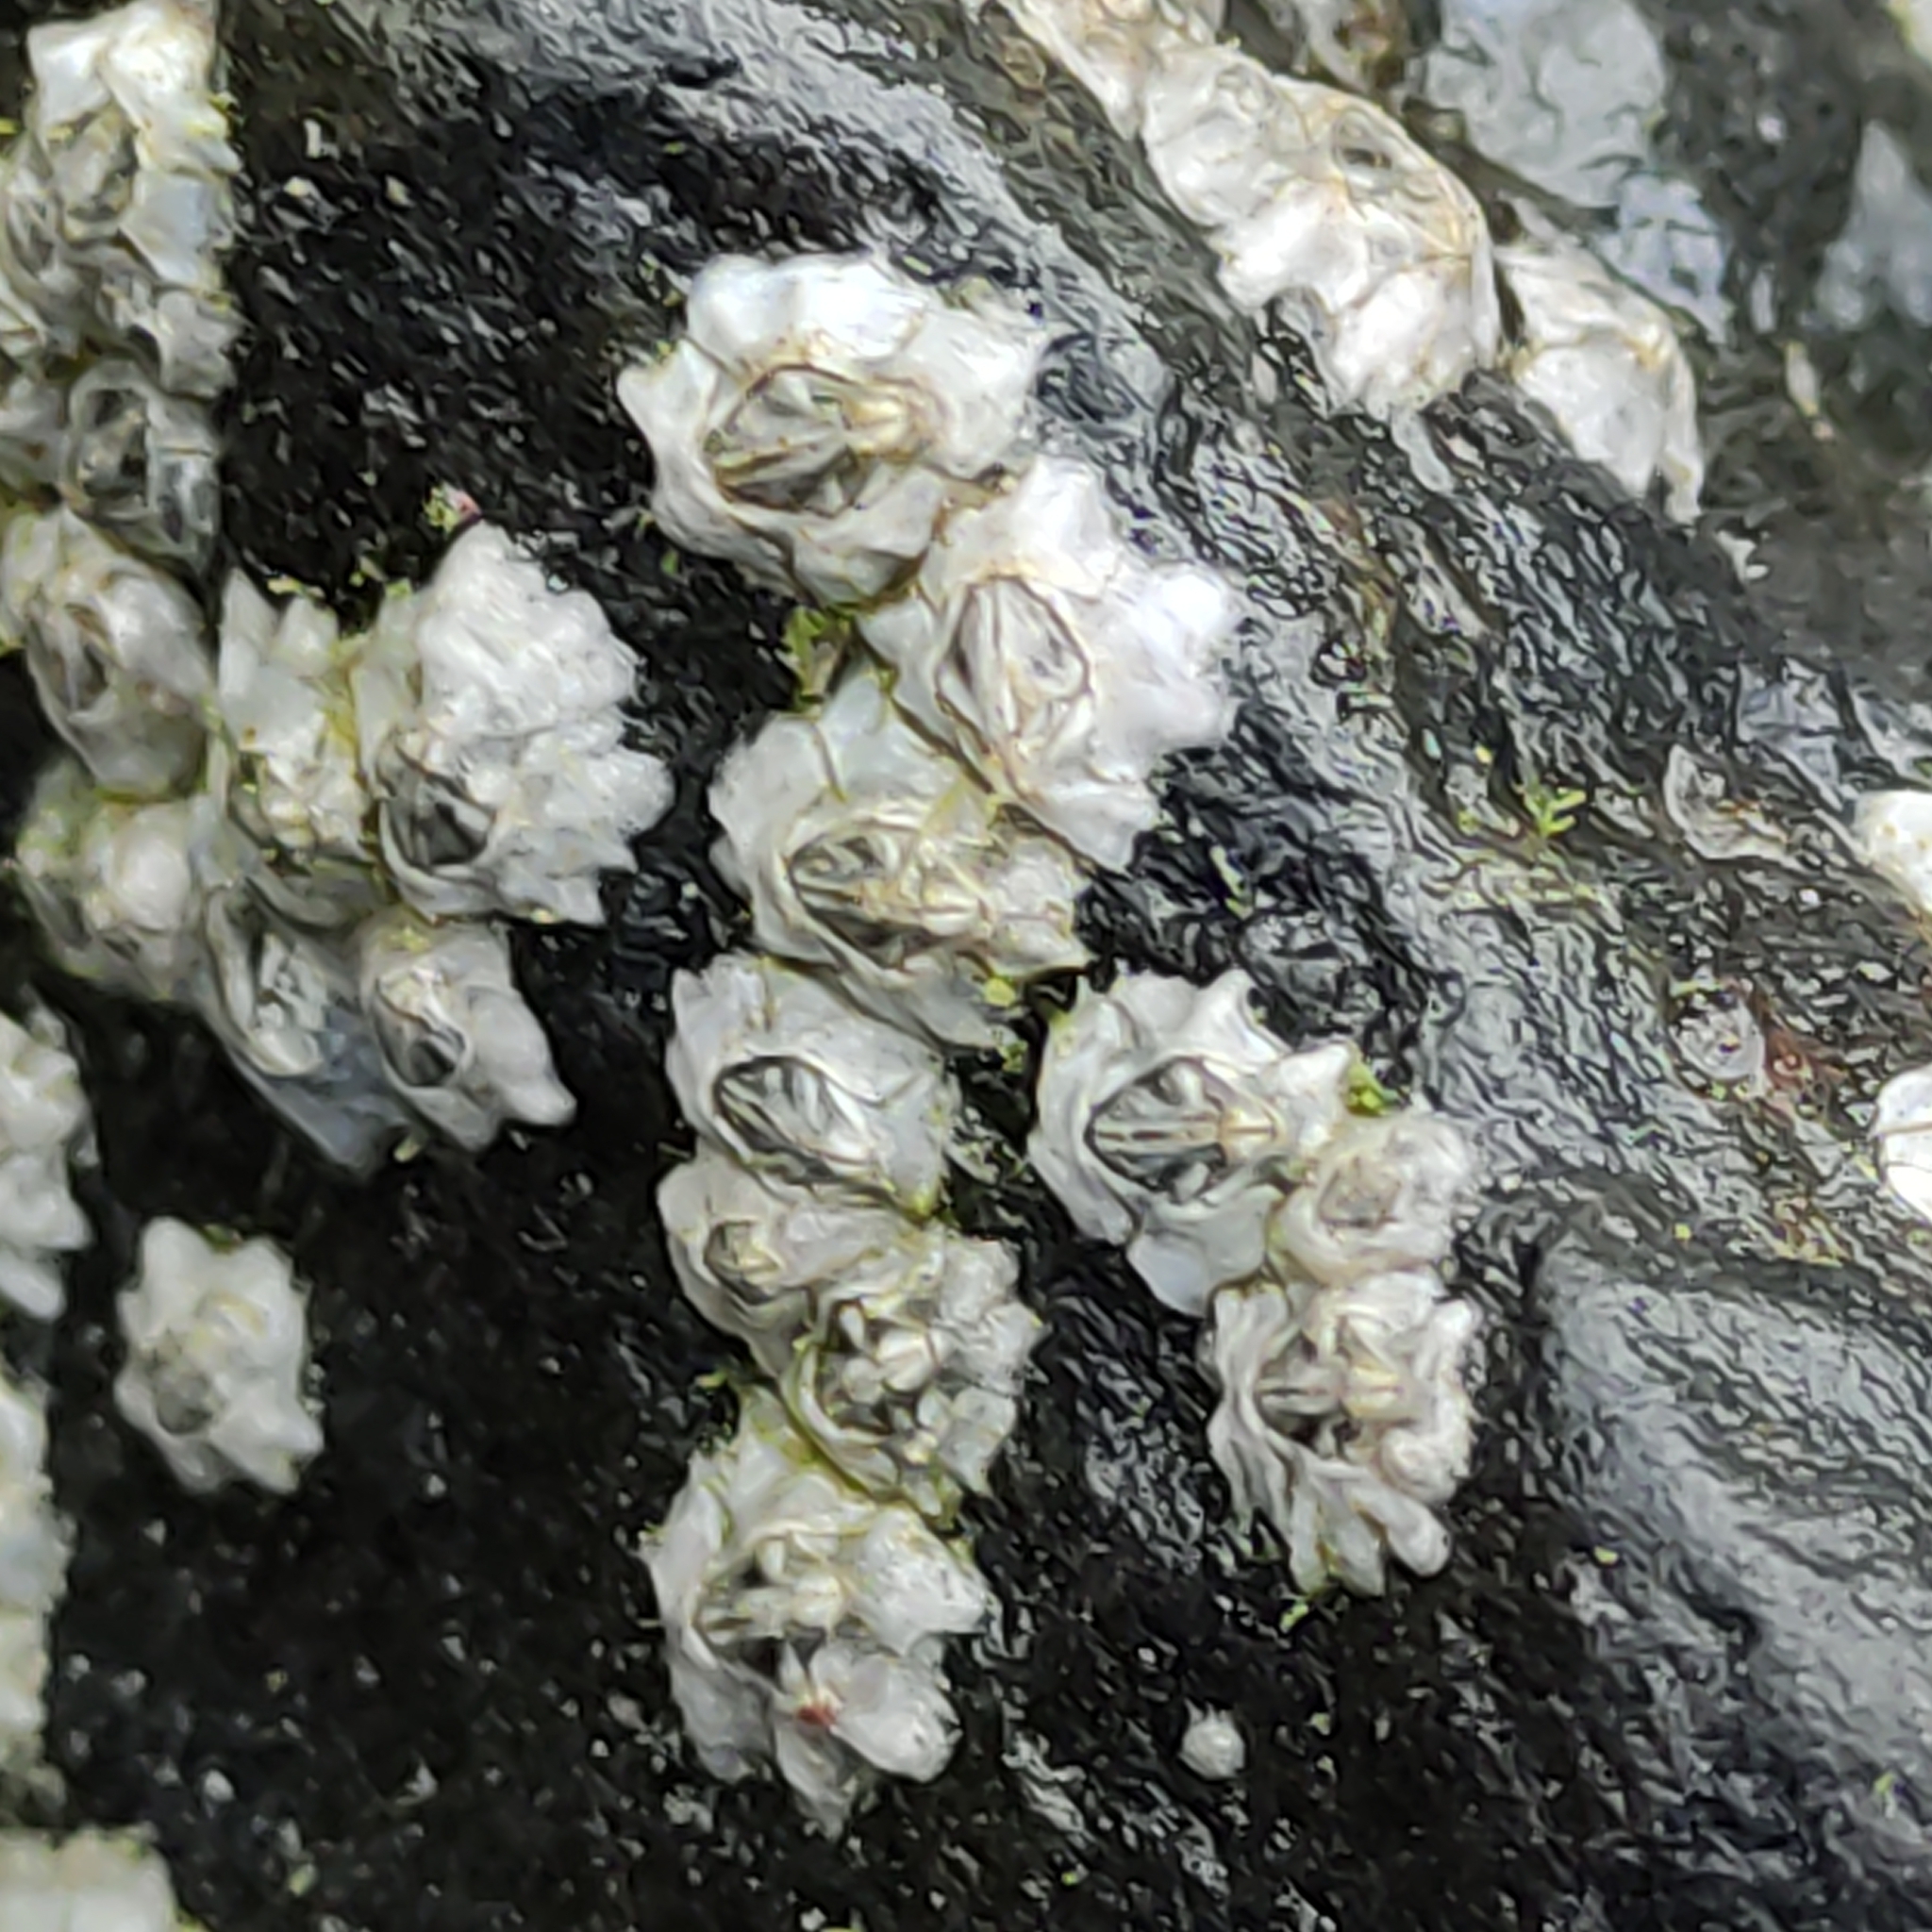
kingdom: Animalia
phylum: Arthropoda
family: Elminiidae
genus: Austrominius
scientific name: Austrominius modestus
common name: Australasian barnacle
